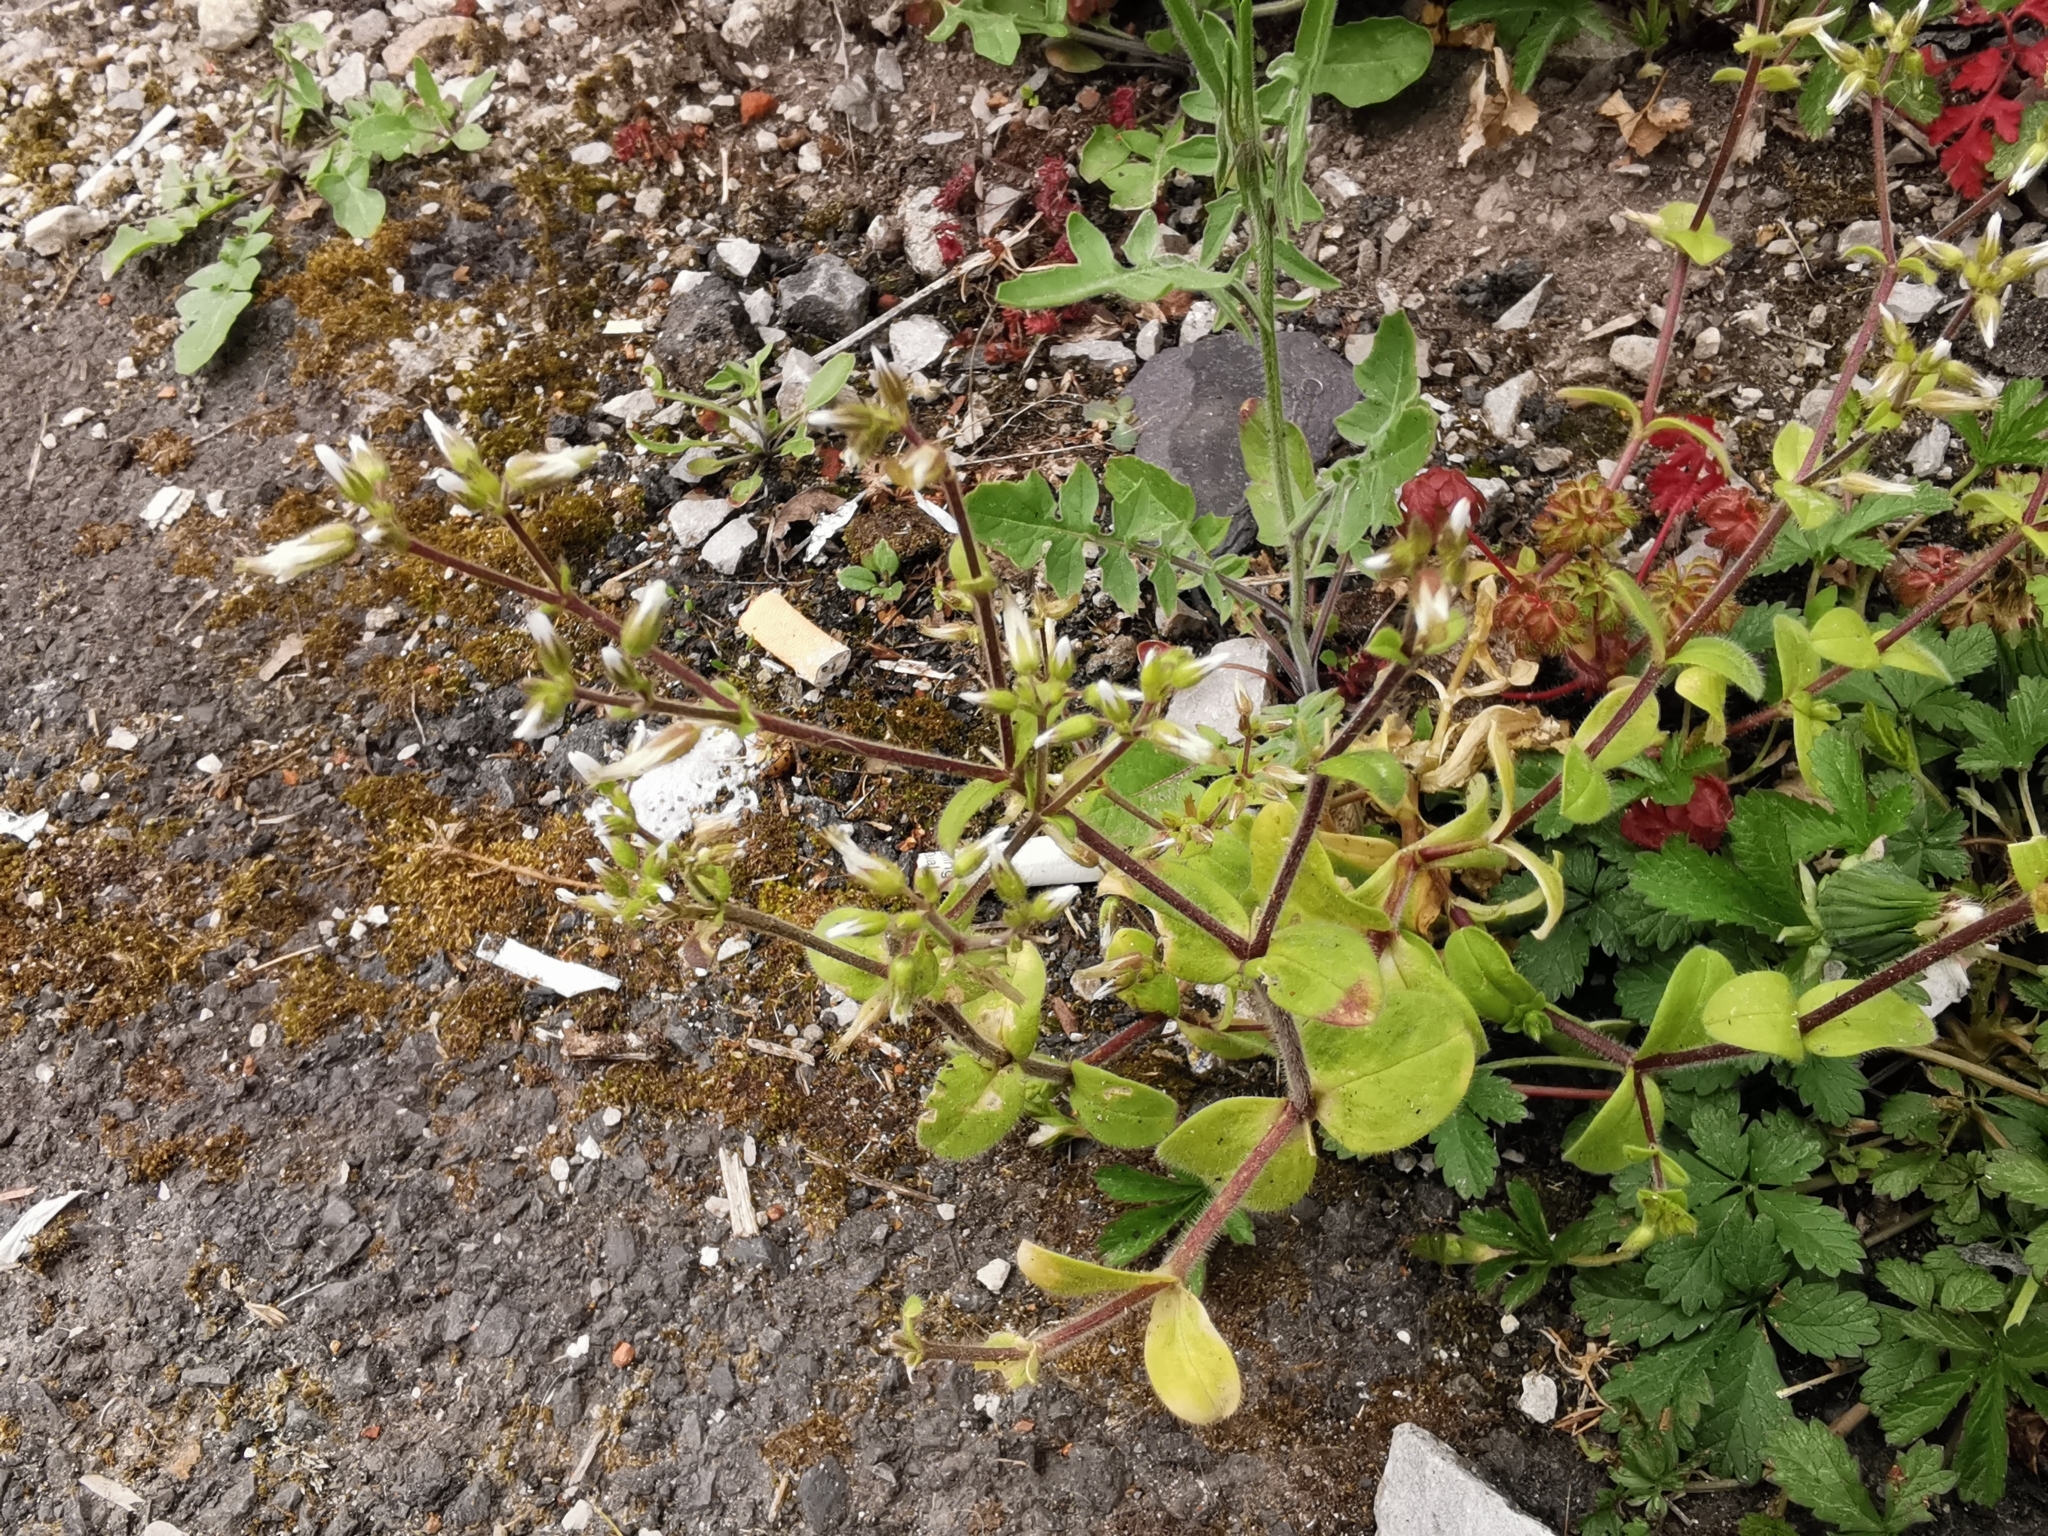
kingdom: Plantae
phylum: Tracheophyta
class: Magnoliopsida
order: Caryophyllales
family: Caryophyllaceae
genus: Cerastium
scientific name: Cerastium glomeratum
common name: Sticky chickweed
